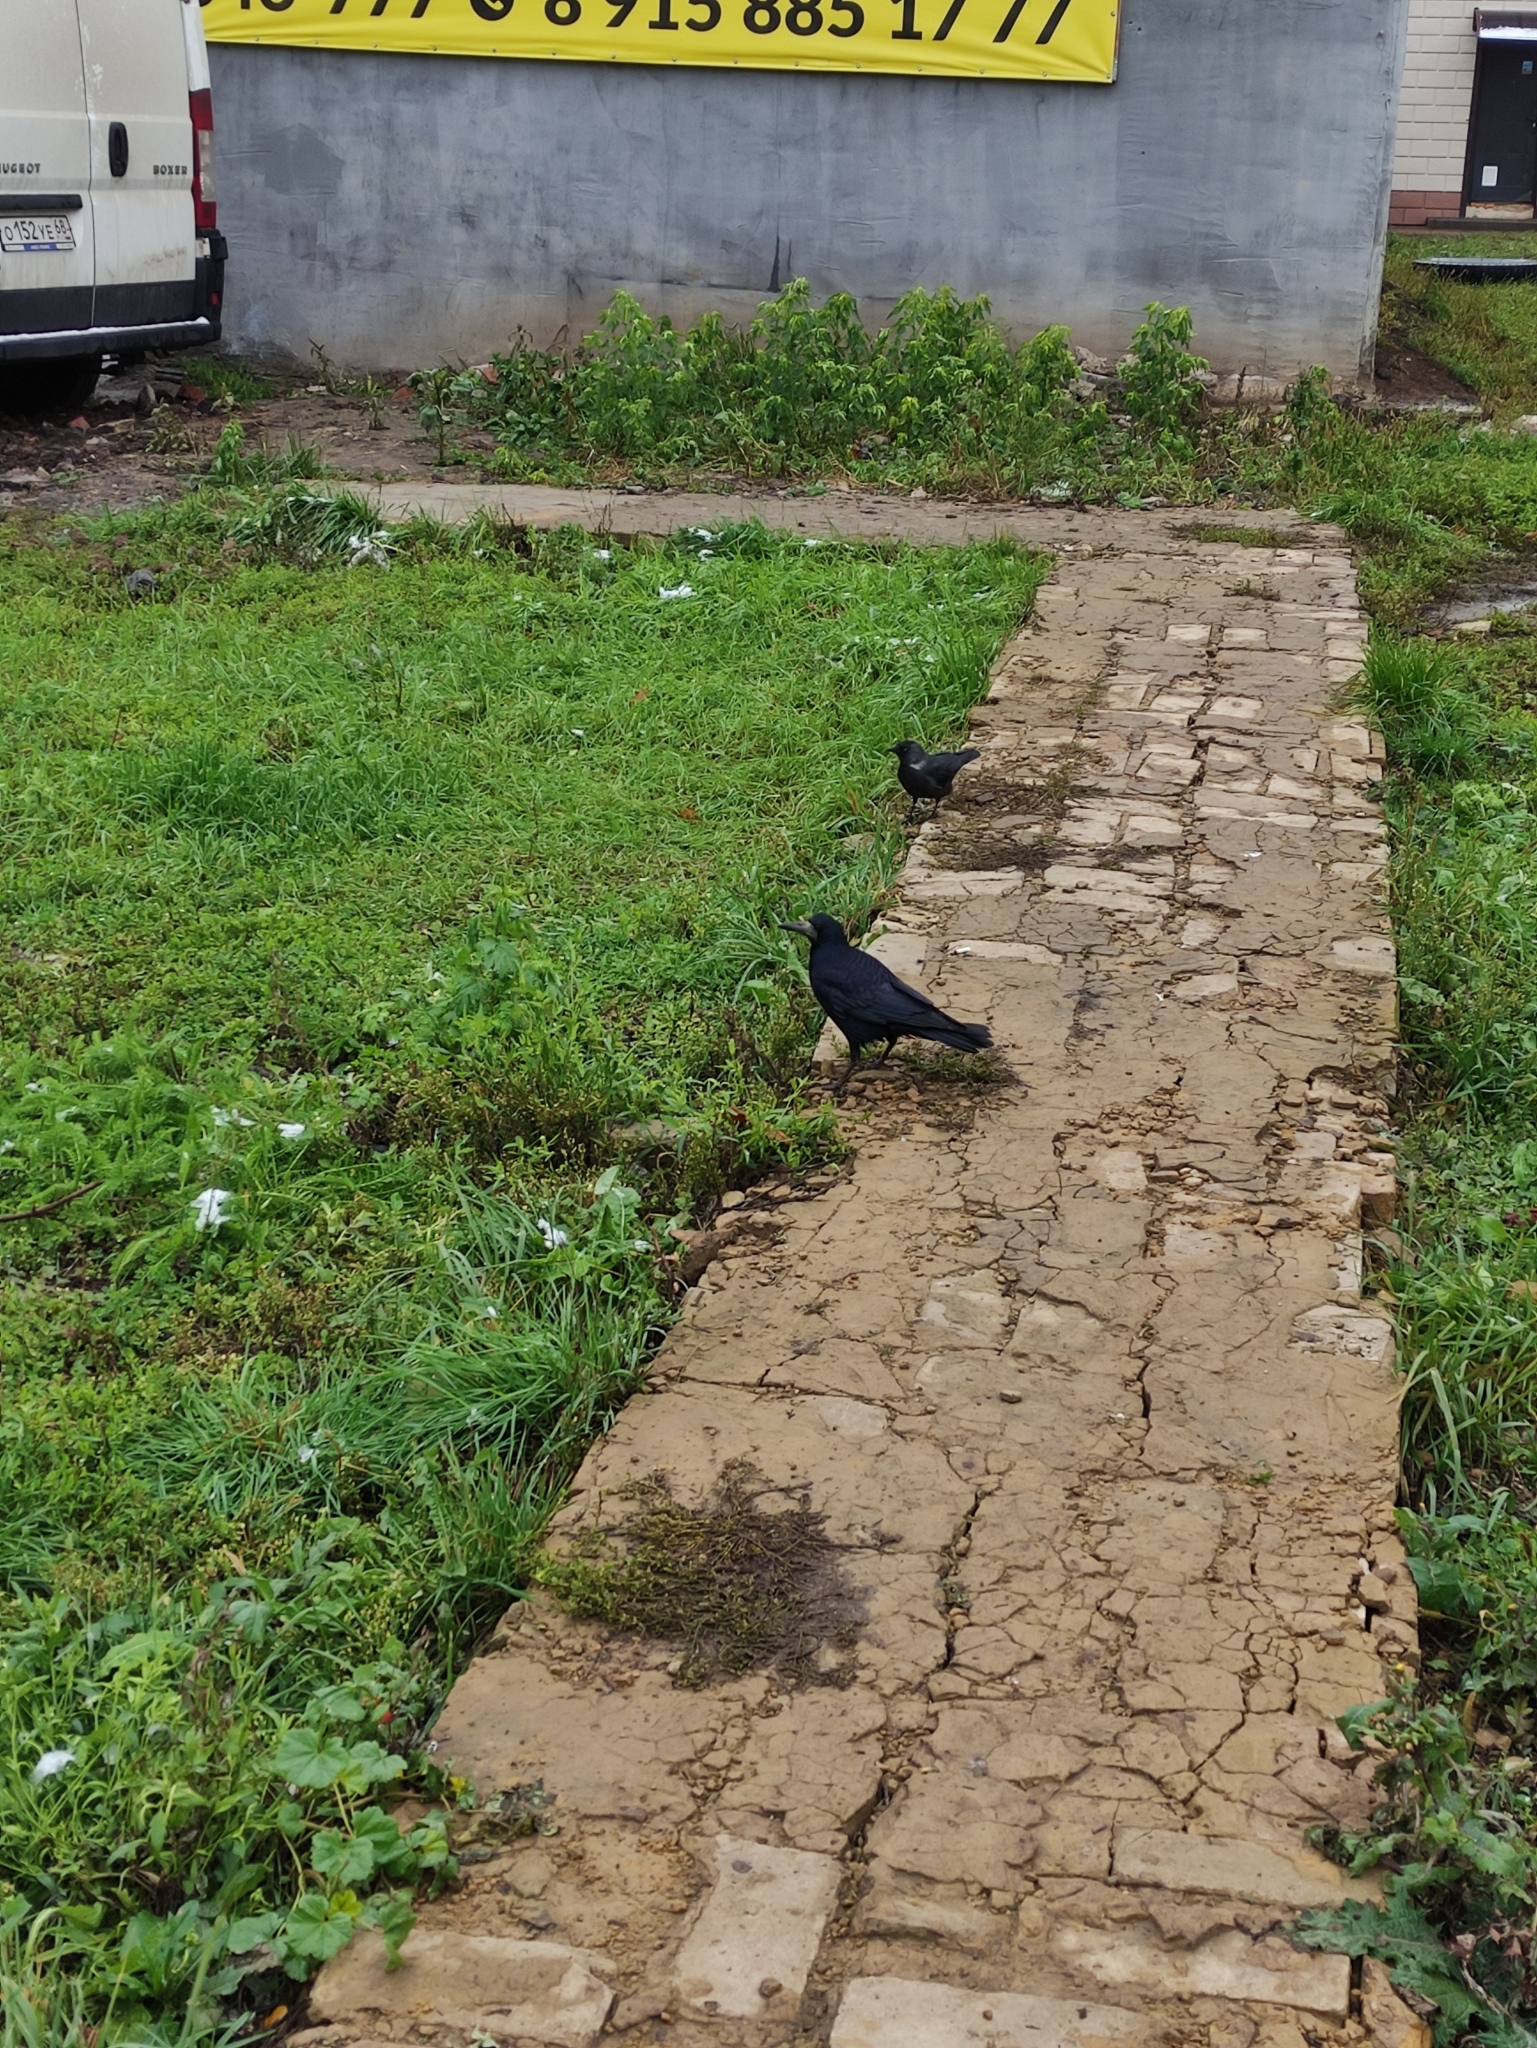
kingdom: Animalia
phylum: Chordata
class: Aves
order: Passeriformes
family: Corvidae
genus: Corvus
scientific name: Corvus frugilegus
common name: Rook
